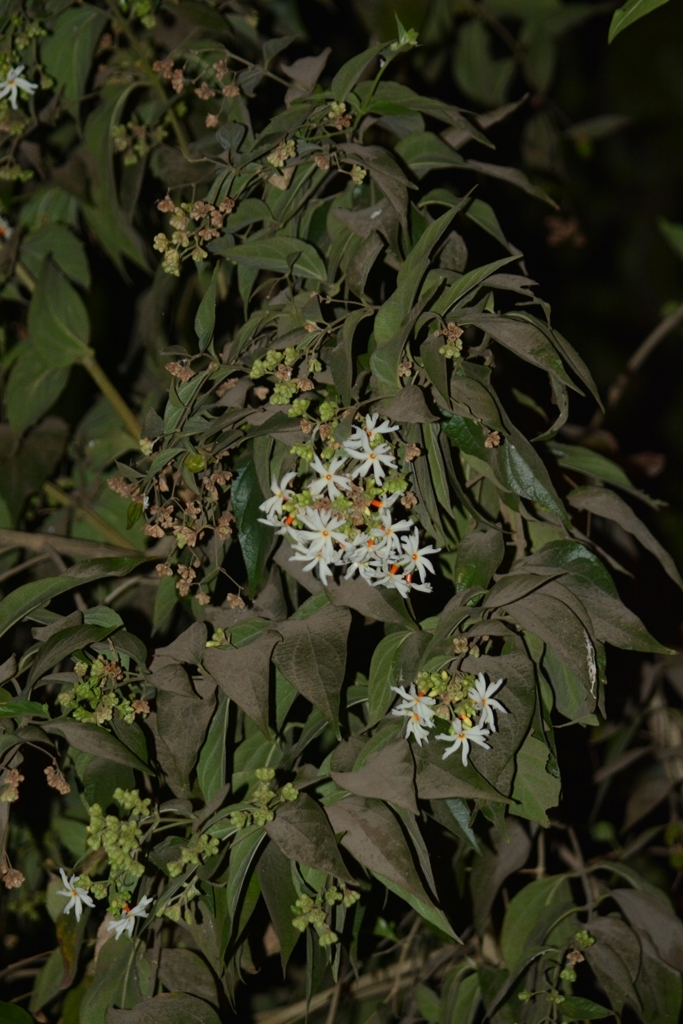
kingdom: Plantae
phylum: Tracheophyta
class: Magnoliopsida
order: Lamiales
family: Oleaceae
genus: Nyctanthes
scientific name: Nyctanthes arbor-tristis
